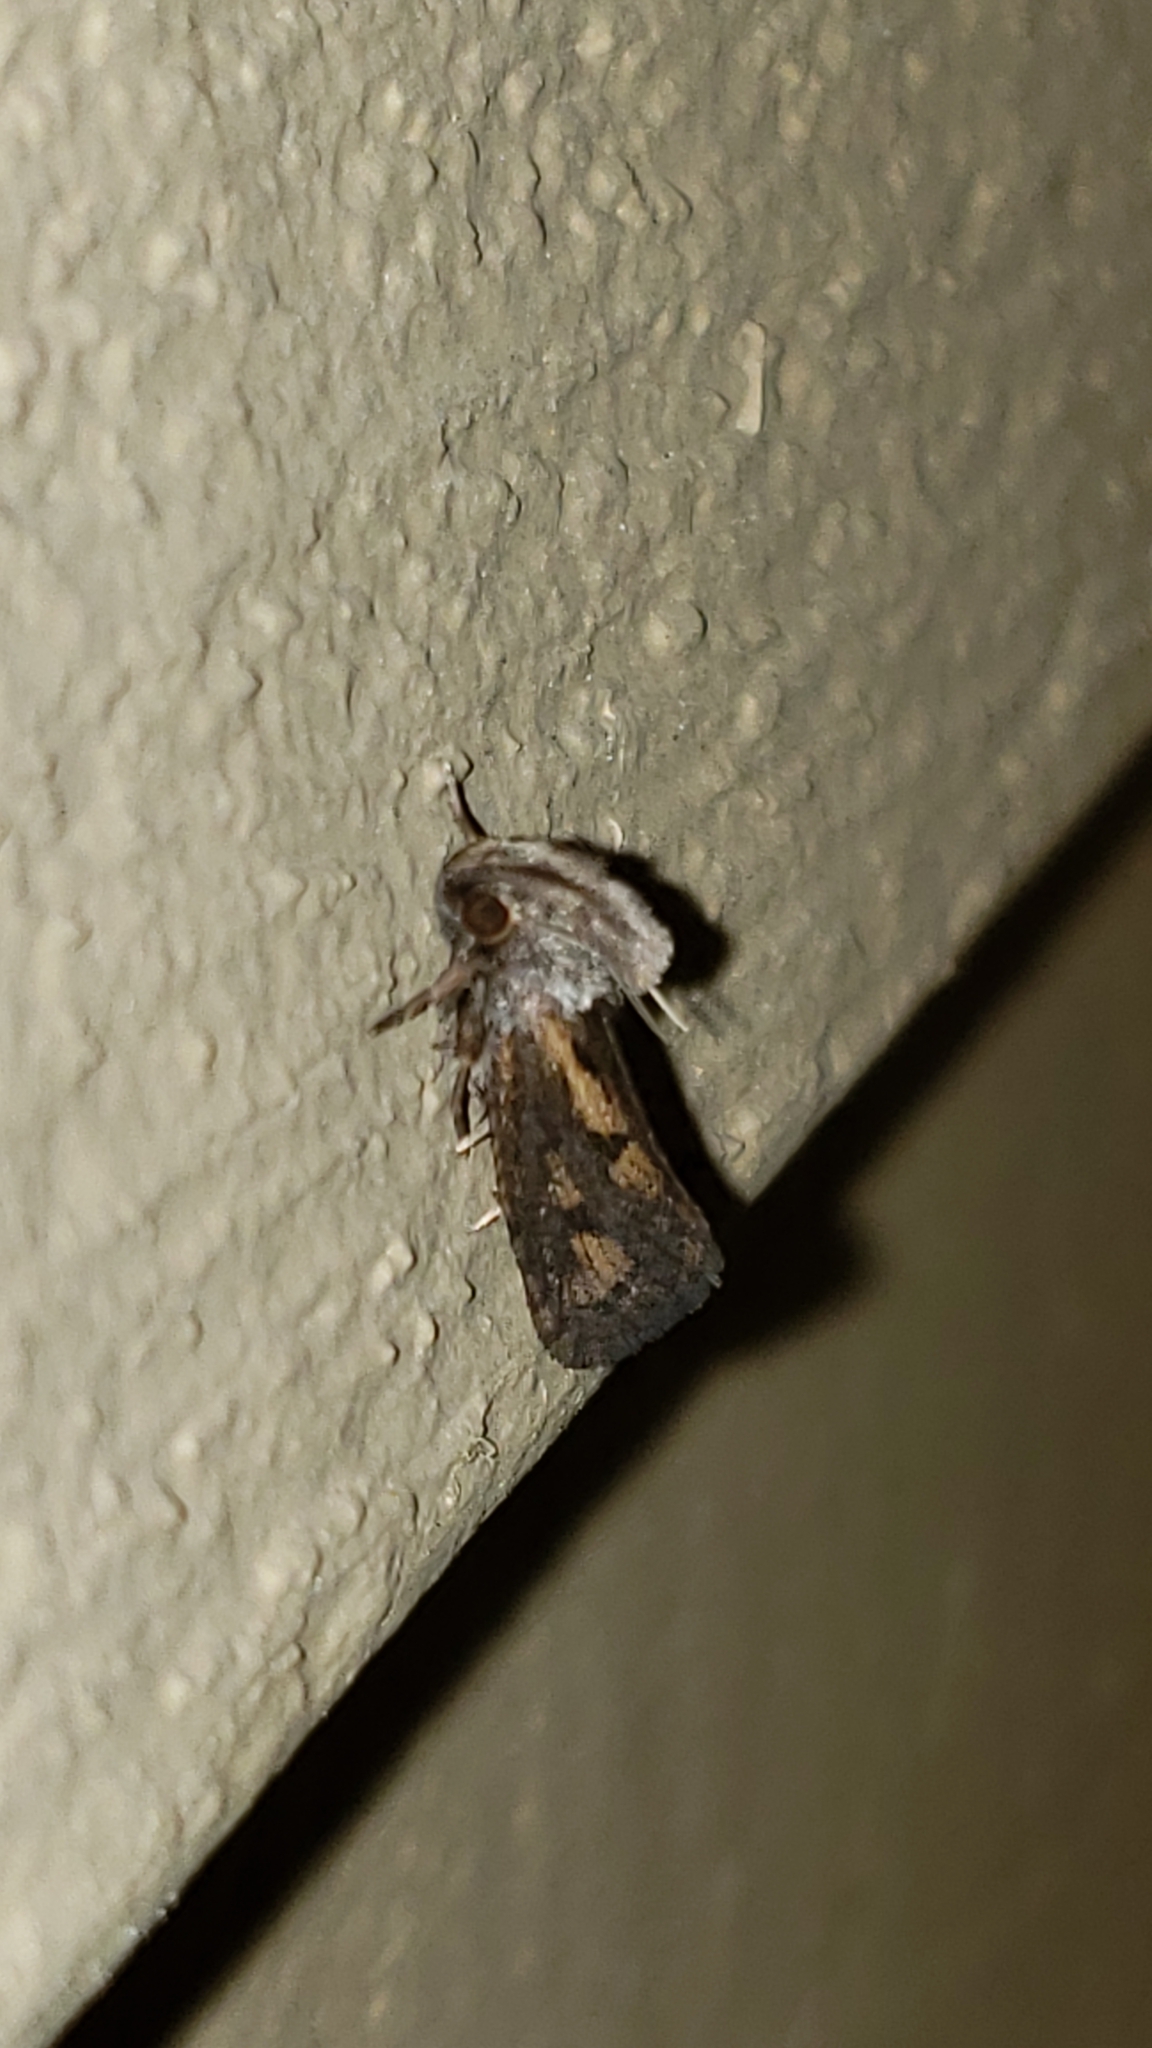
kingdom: Animalia
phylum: Arthropoda
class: Insecta
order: Lepidoptera
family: Tineidae
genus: Acrolophus
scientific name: Acrolophus popeanella
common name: Clemens' grass tubeworm moth
